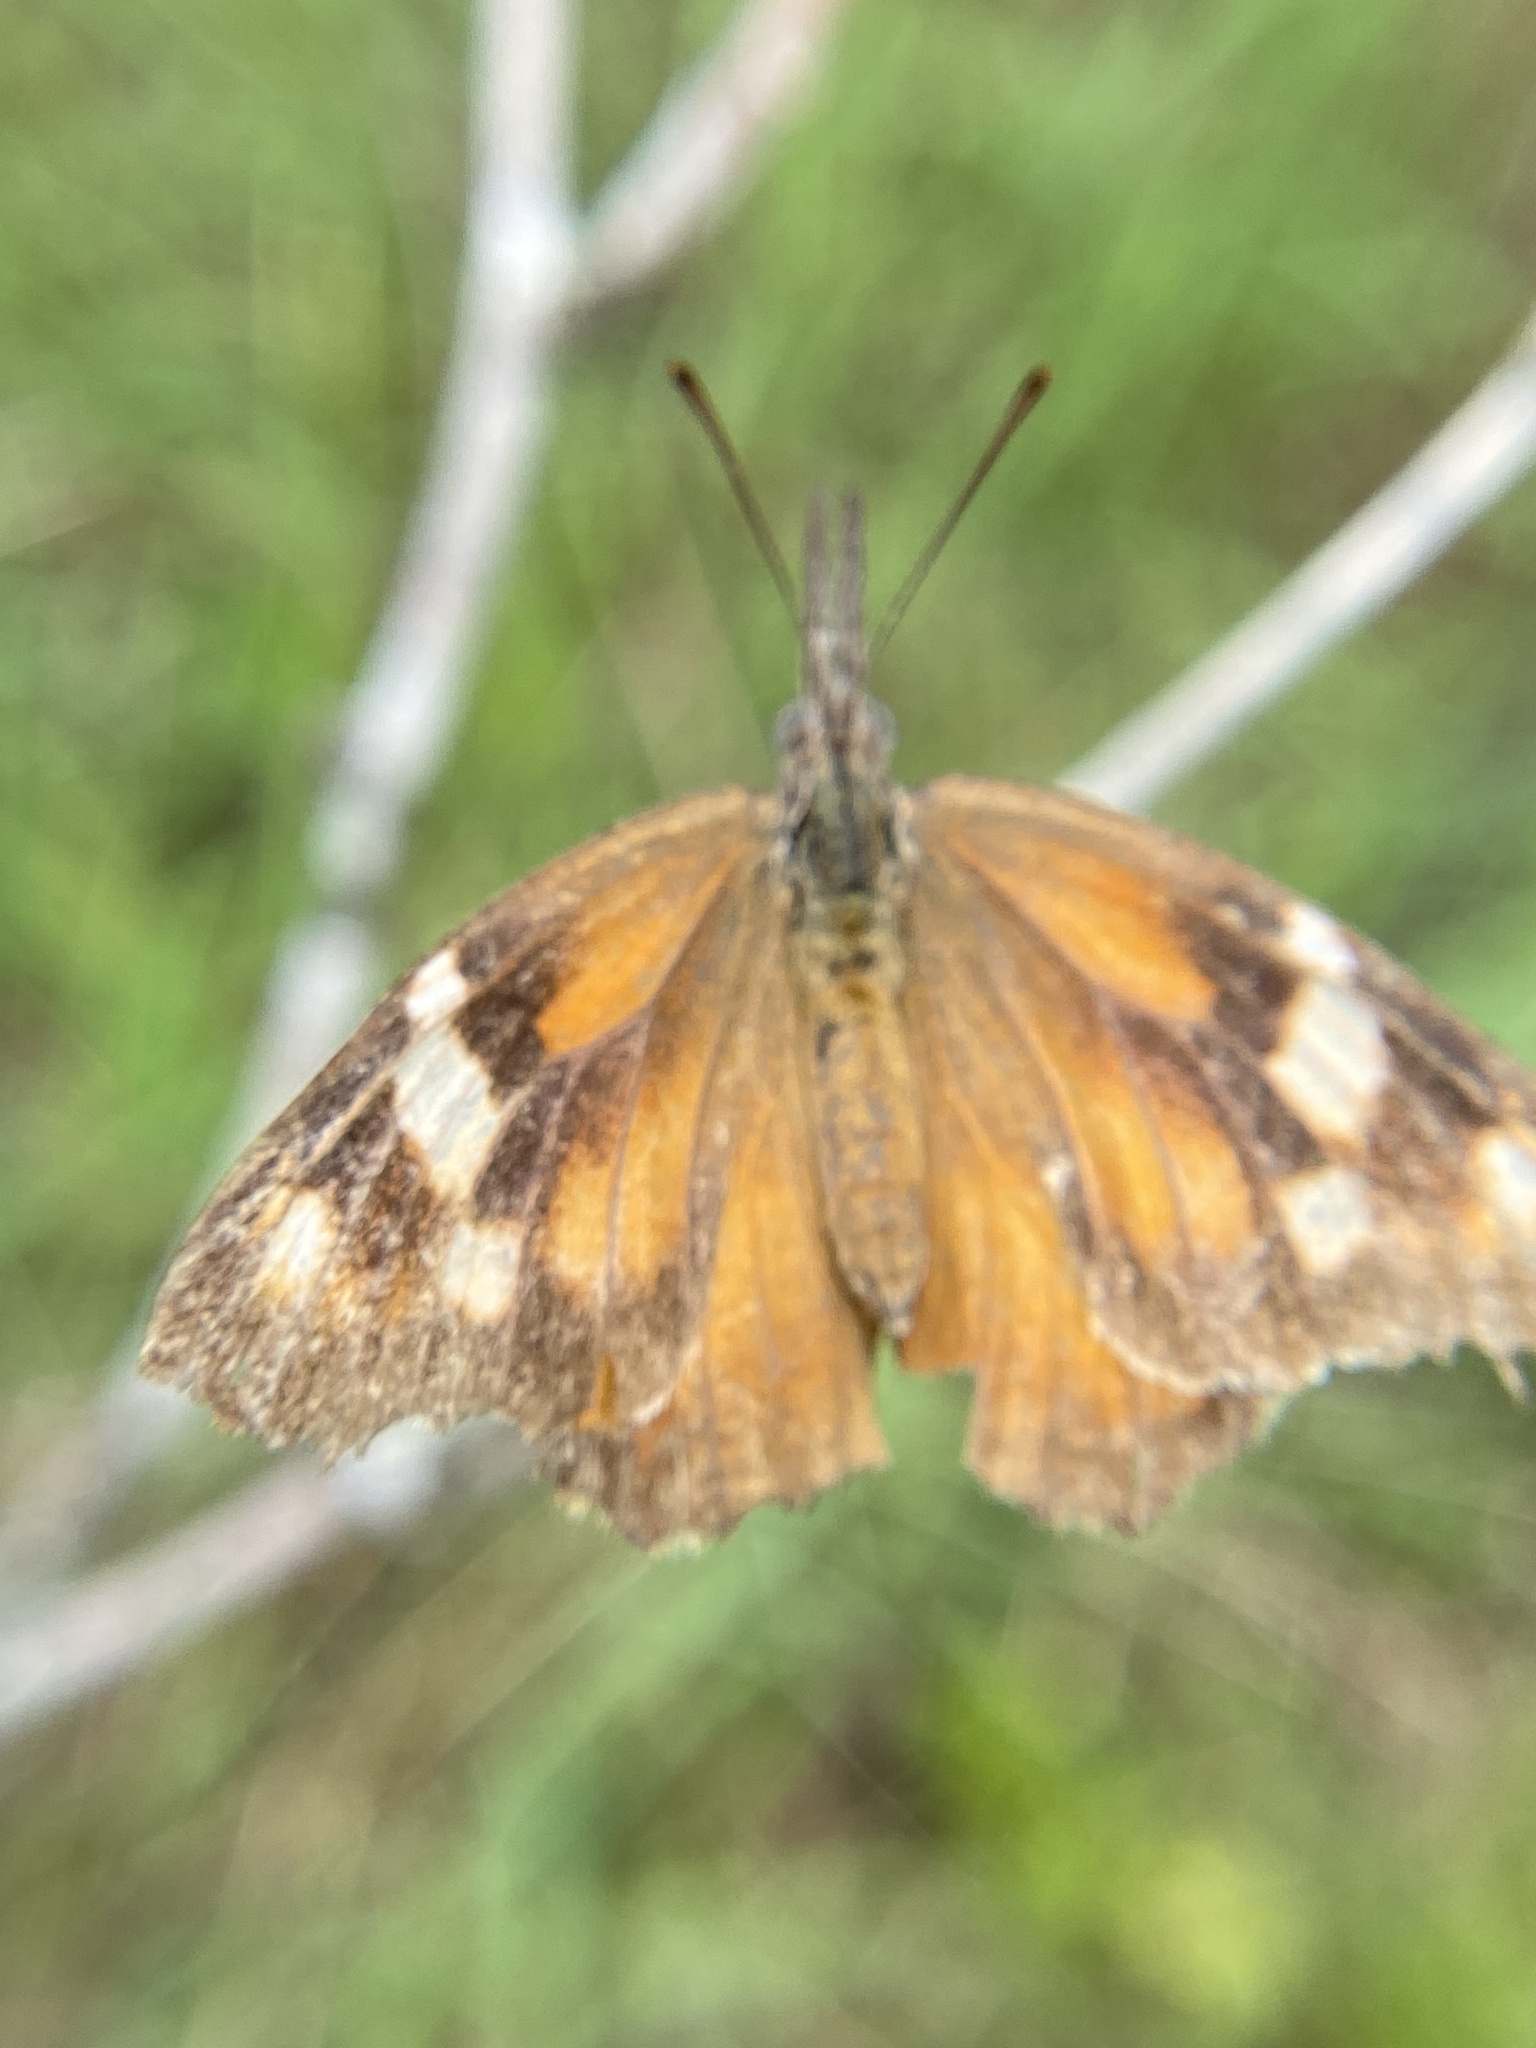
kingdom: Animalia
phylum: Arthropoda
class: Insecta
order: Lepidoptera
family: Nymphalidae
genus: Libytheana
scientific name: Libytheana carinenta
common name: American snout
